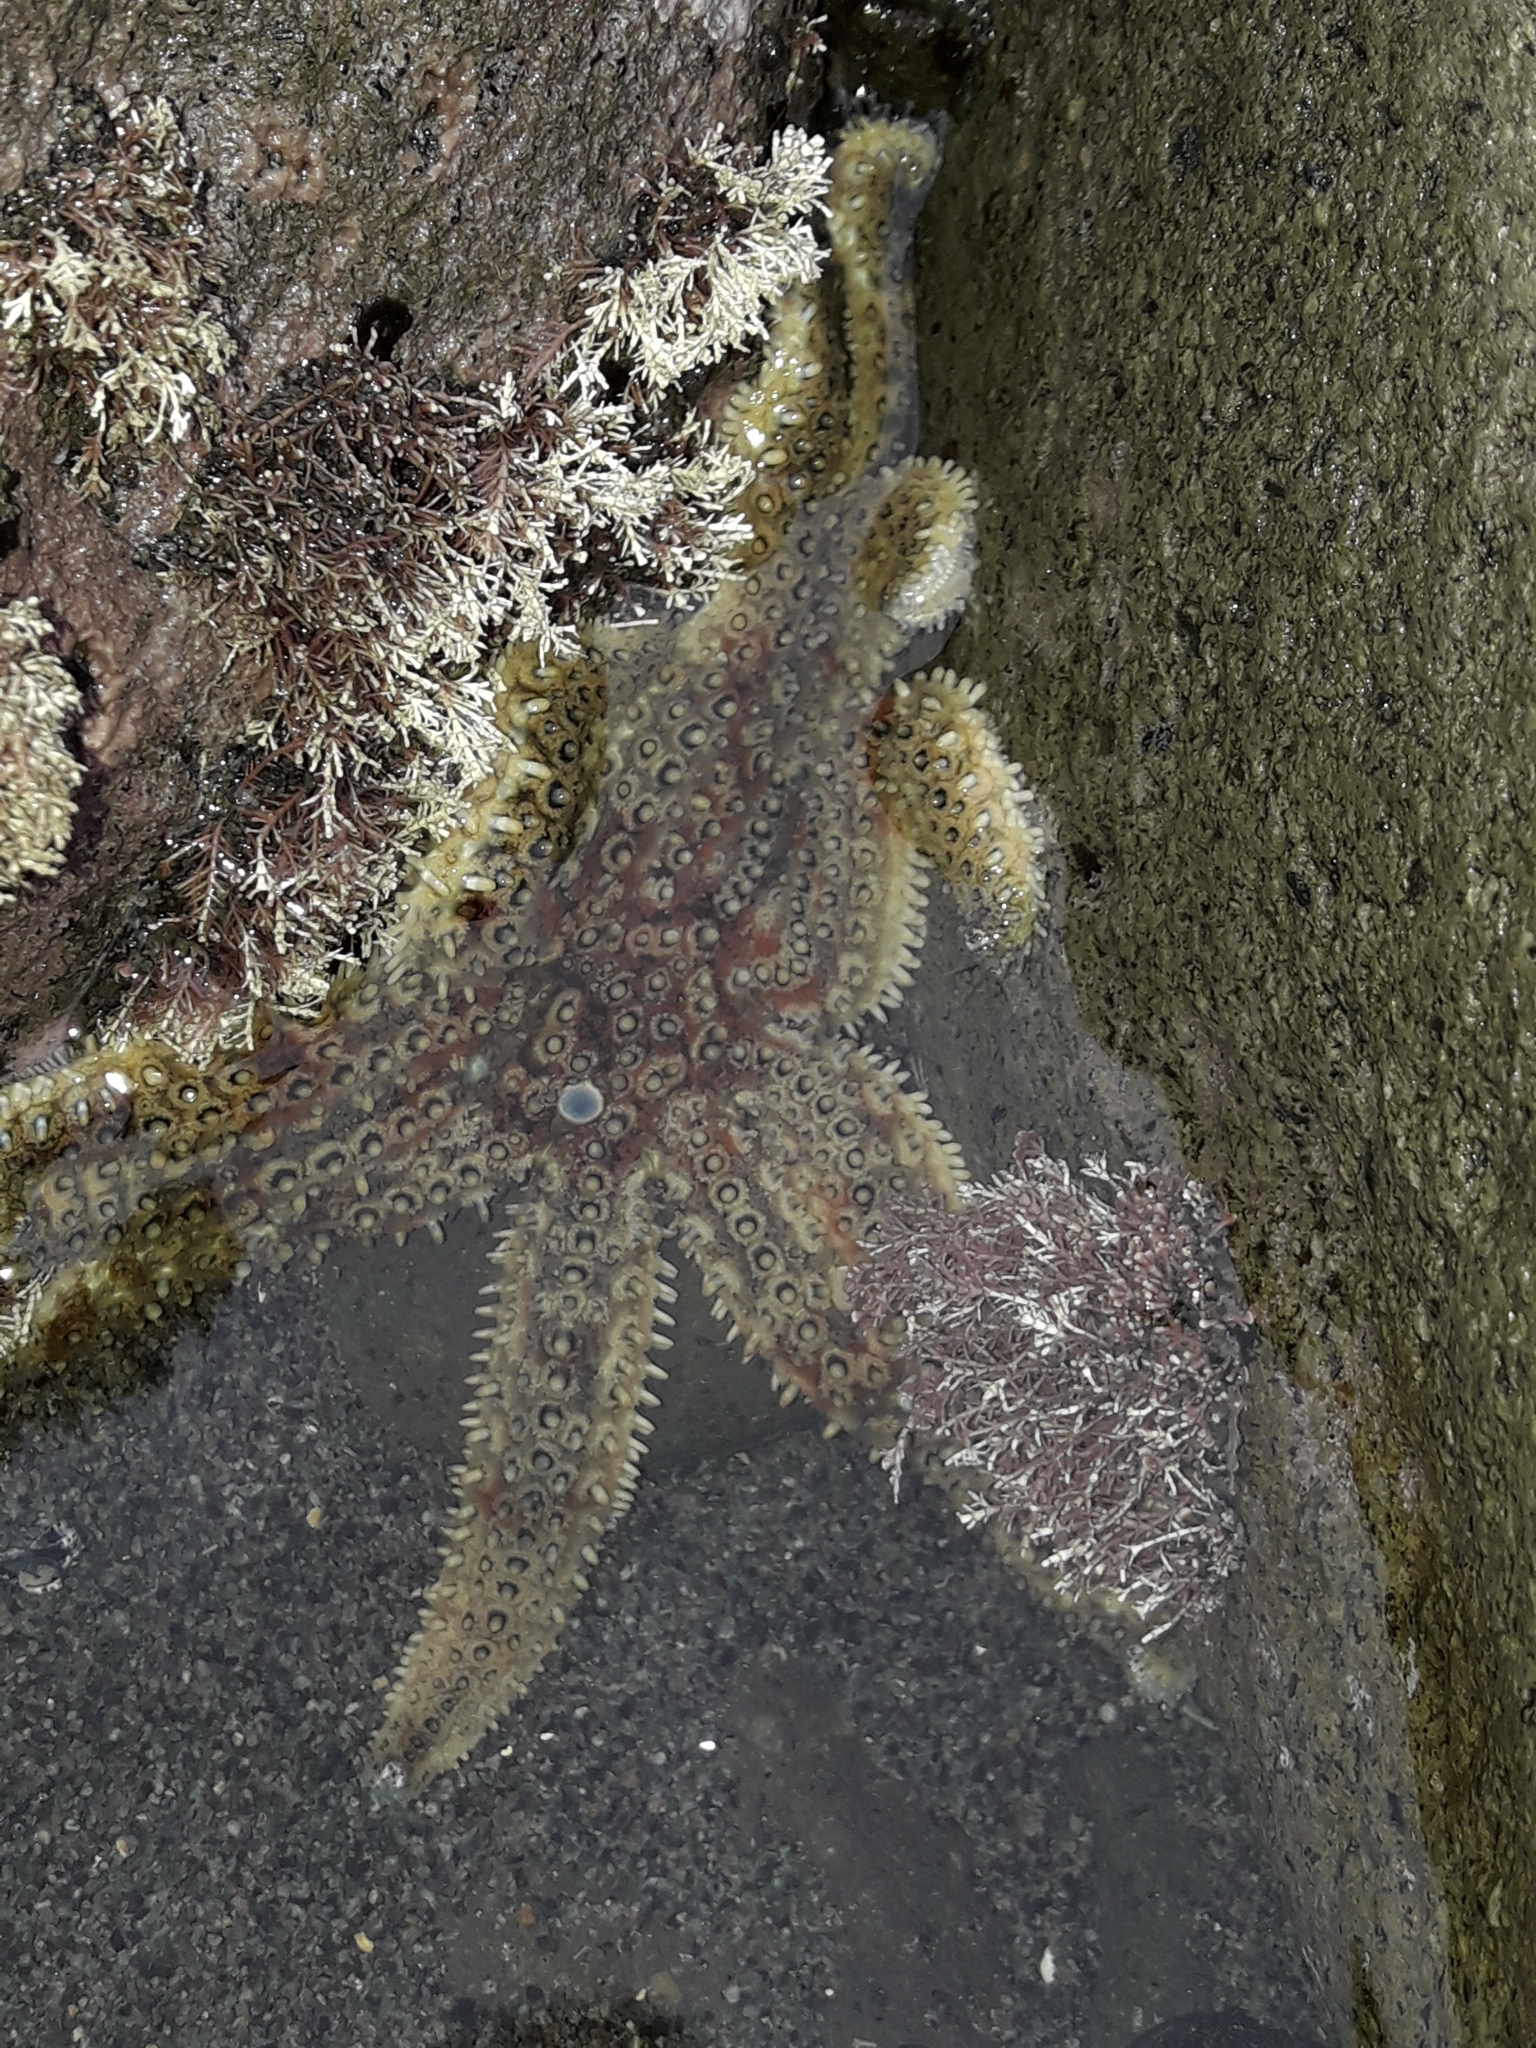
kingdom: Animalia
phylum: Echinodermata
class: Asteroidea
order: Forcipulatida
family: Asteriidae
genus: Coscinasterias
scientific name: Coscinasterias muricata
